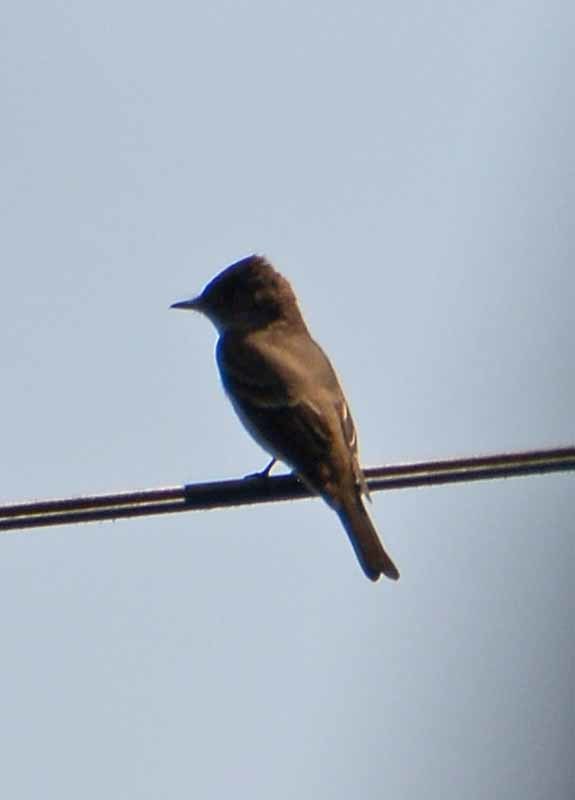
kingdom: Animalia
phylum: Chordata
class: Aves
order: Passeriformes
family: Tyrannidae
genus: Contopus
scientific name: Contopus sordidulus
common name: Western wood-pewee
